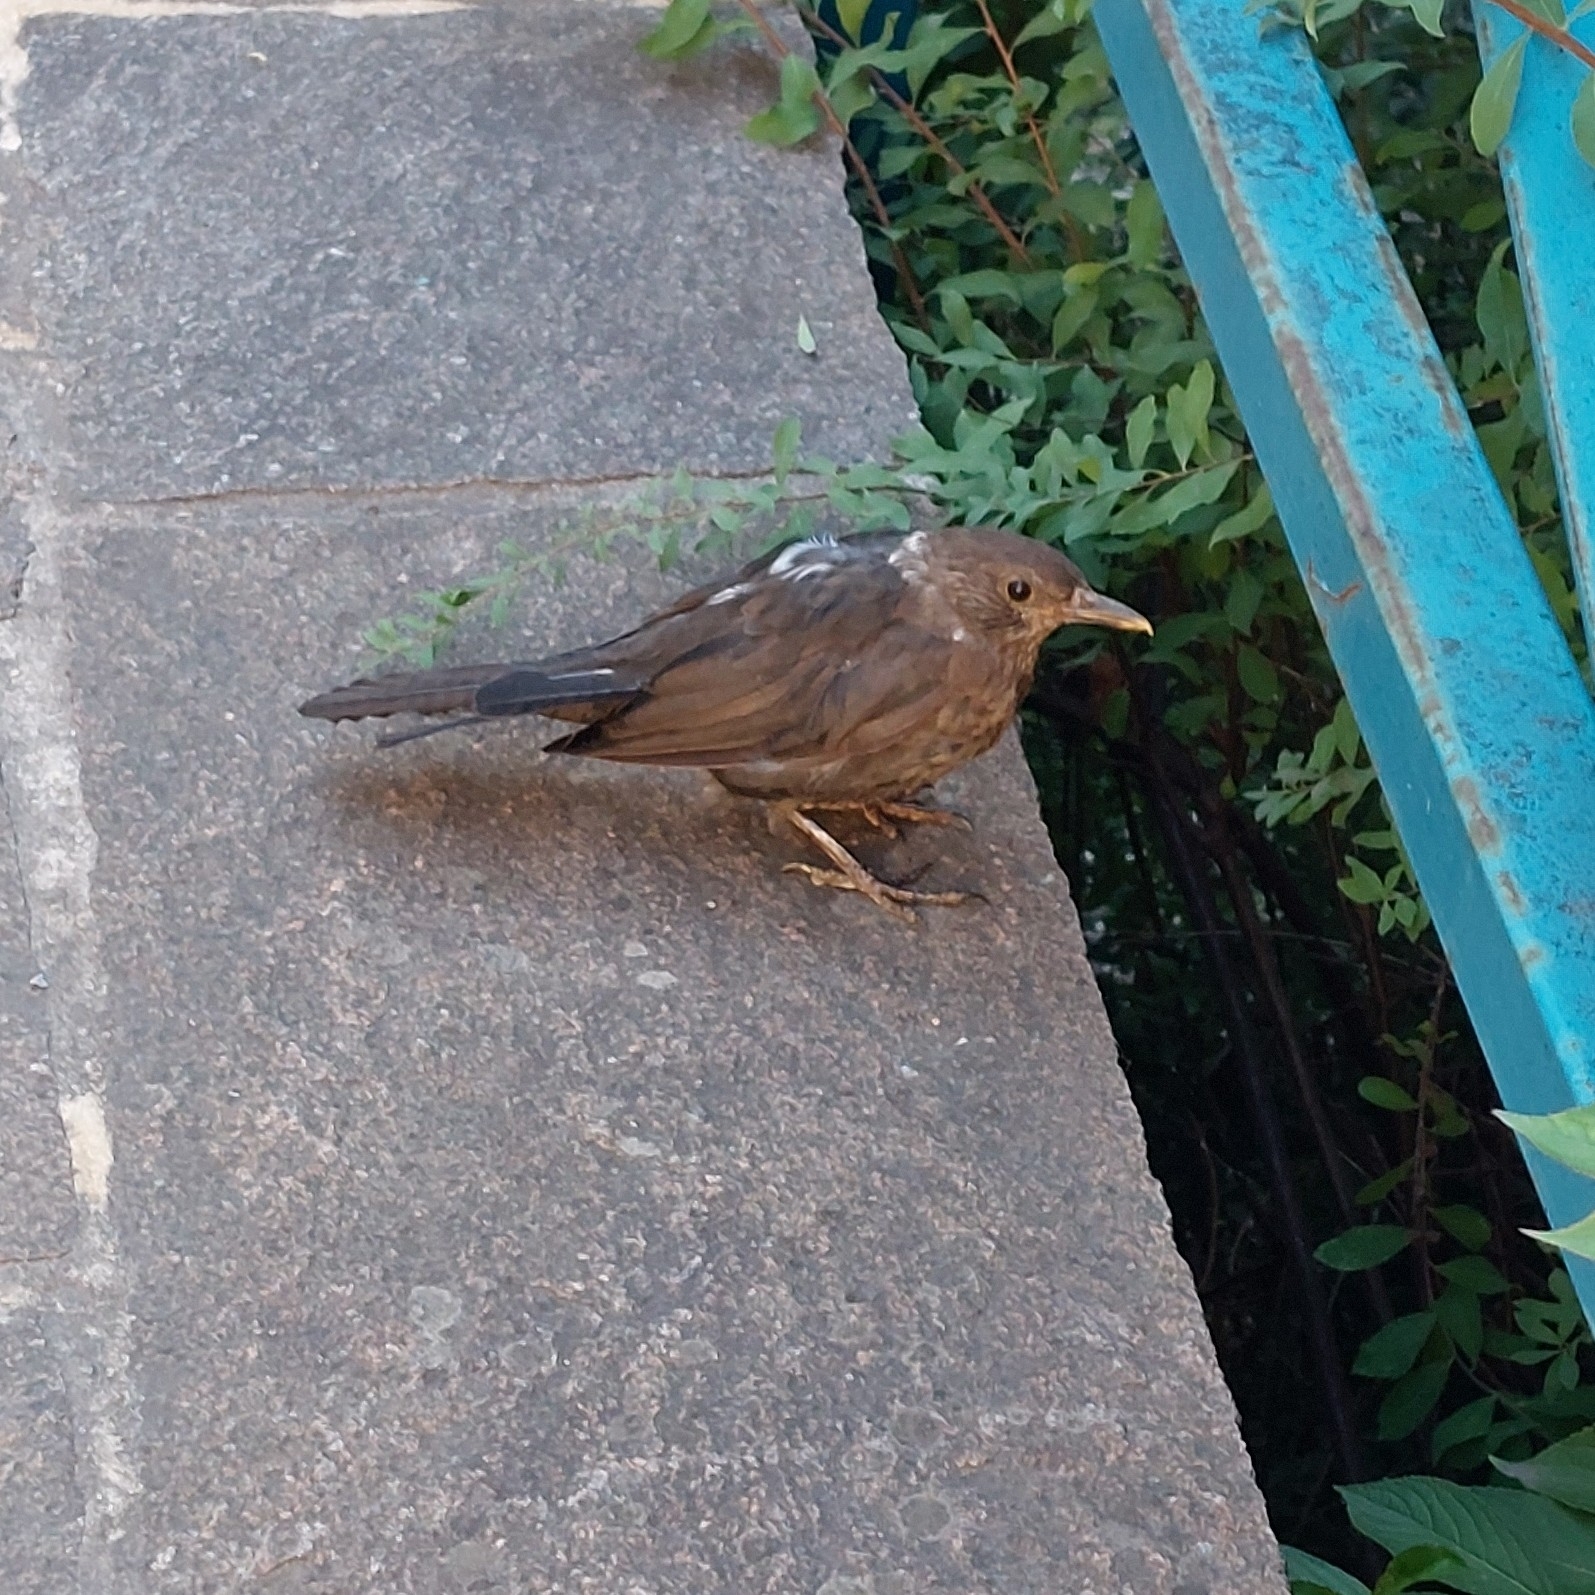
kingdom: Animalia
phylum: Chordata
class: Aves
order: Passeriformes
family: Turdidae
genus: Turdus
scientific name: Turdus merula
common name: Common blackbird
